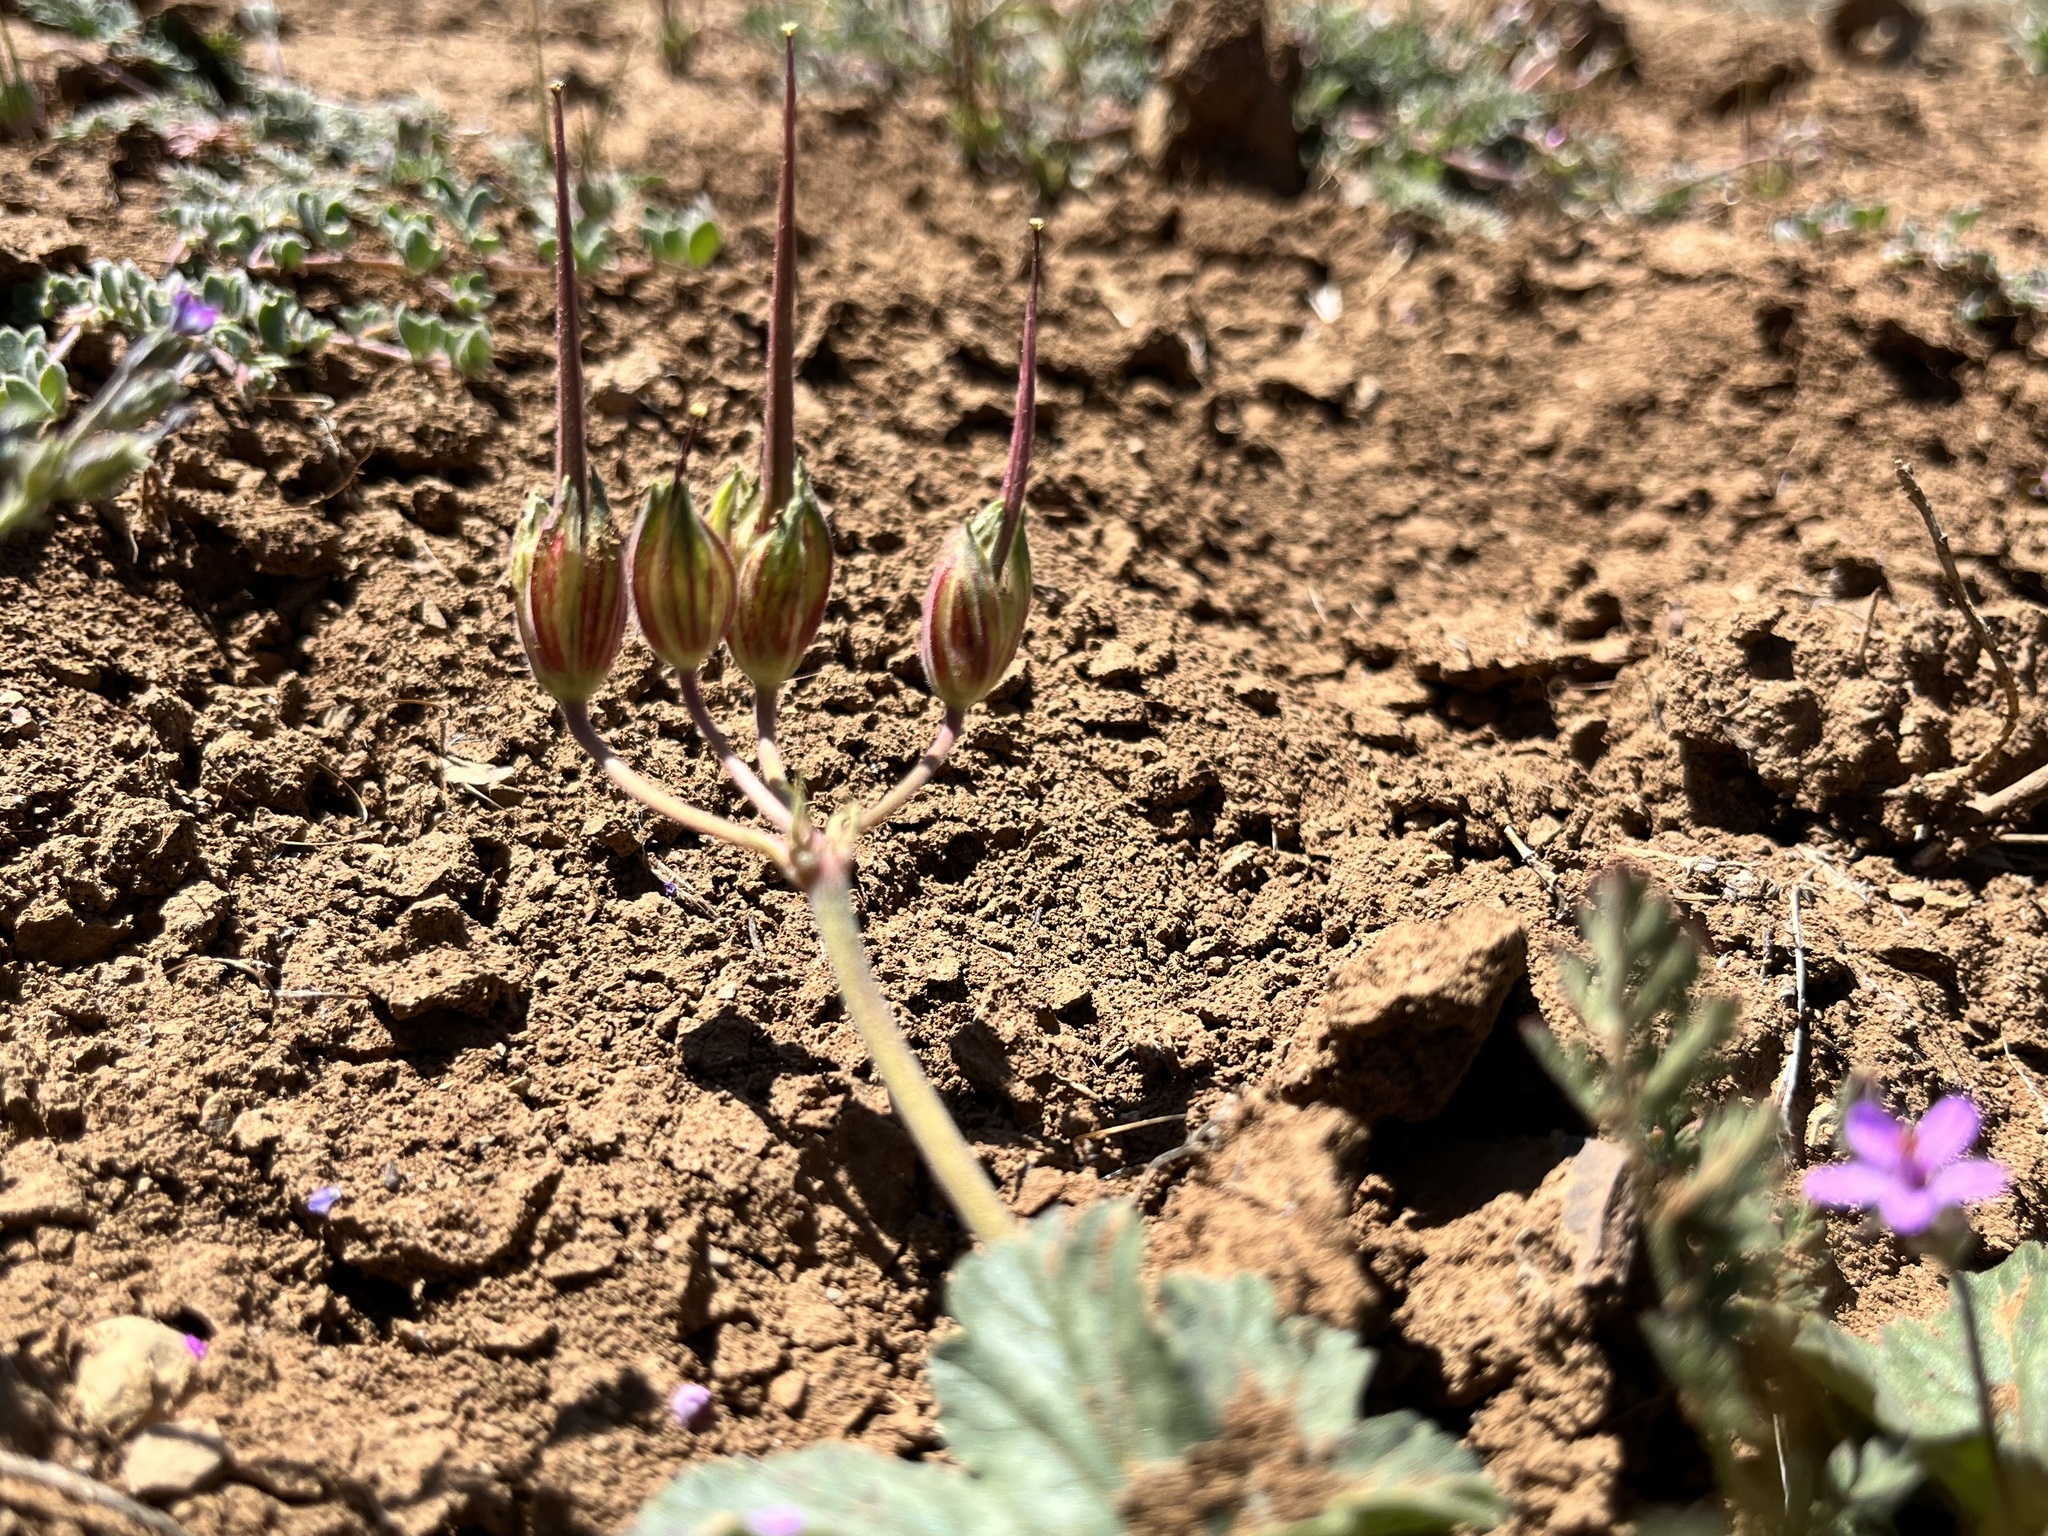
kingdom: Plantae
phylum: Tracheophyta
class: Magnoliopsida
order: Geraniales
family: Geraniaceae
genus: California
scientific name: California macrophylla
